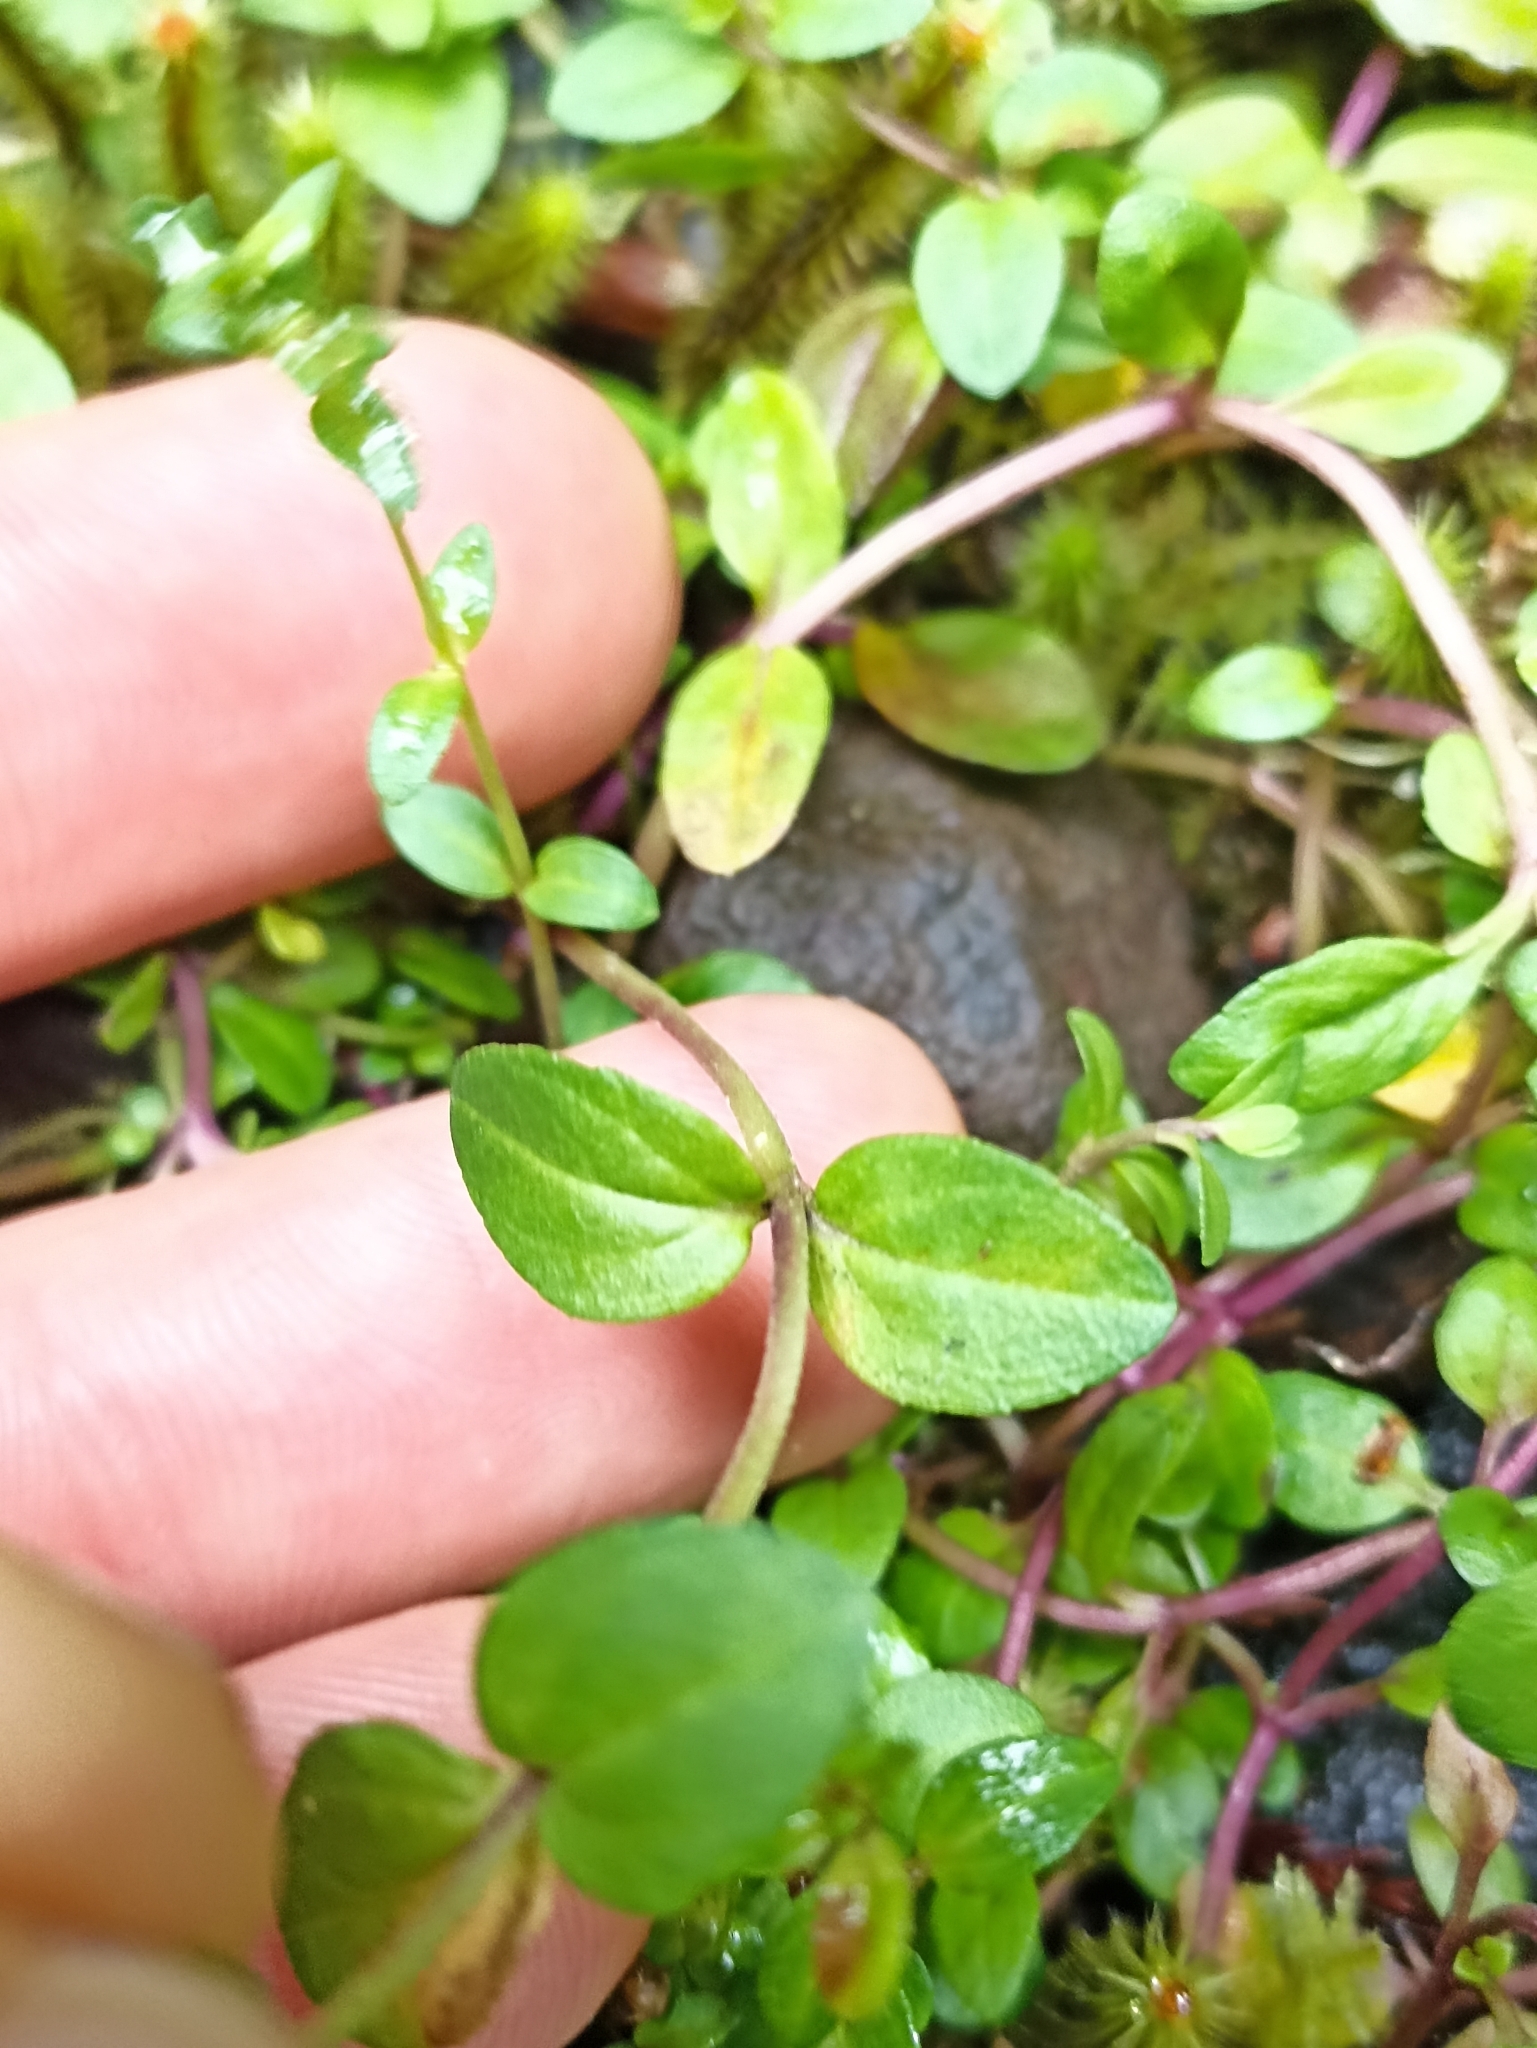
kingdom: Plantae
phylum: Tracheophyta
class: Magnoliopsida
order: Lamiales
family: Plantaginaceae
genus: Veronica
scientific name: Veronica serpyllifolia
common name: Thyme-leaved speedwell
